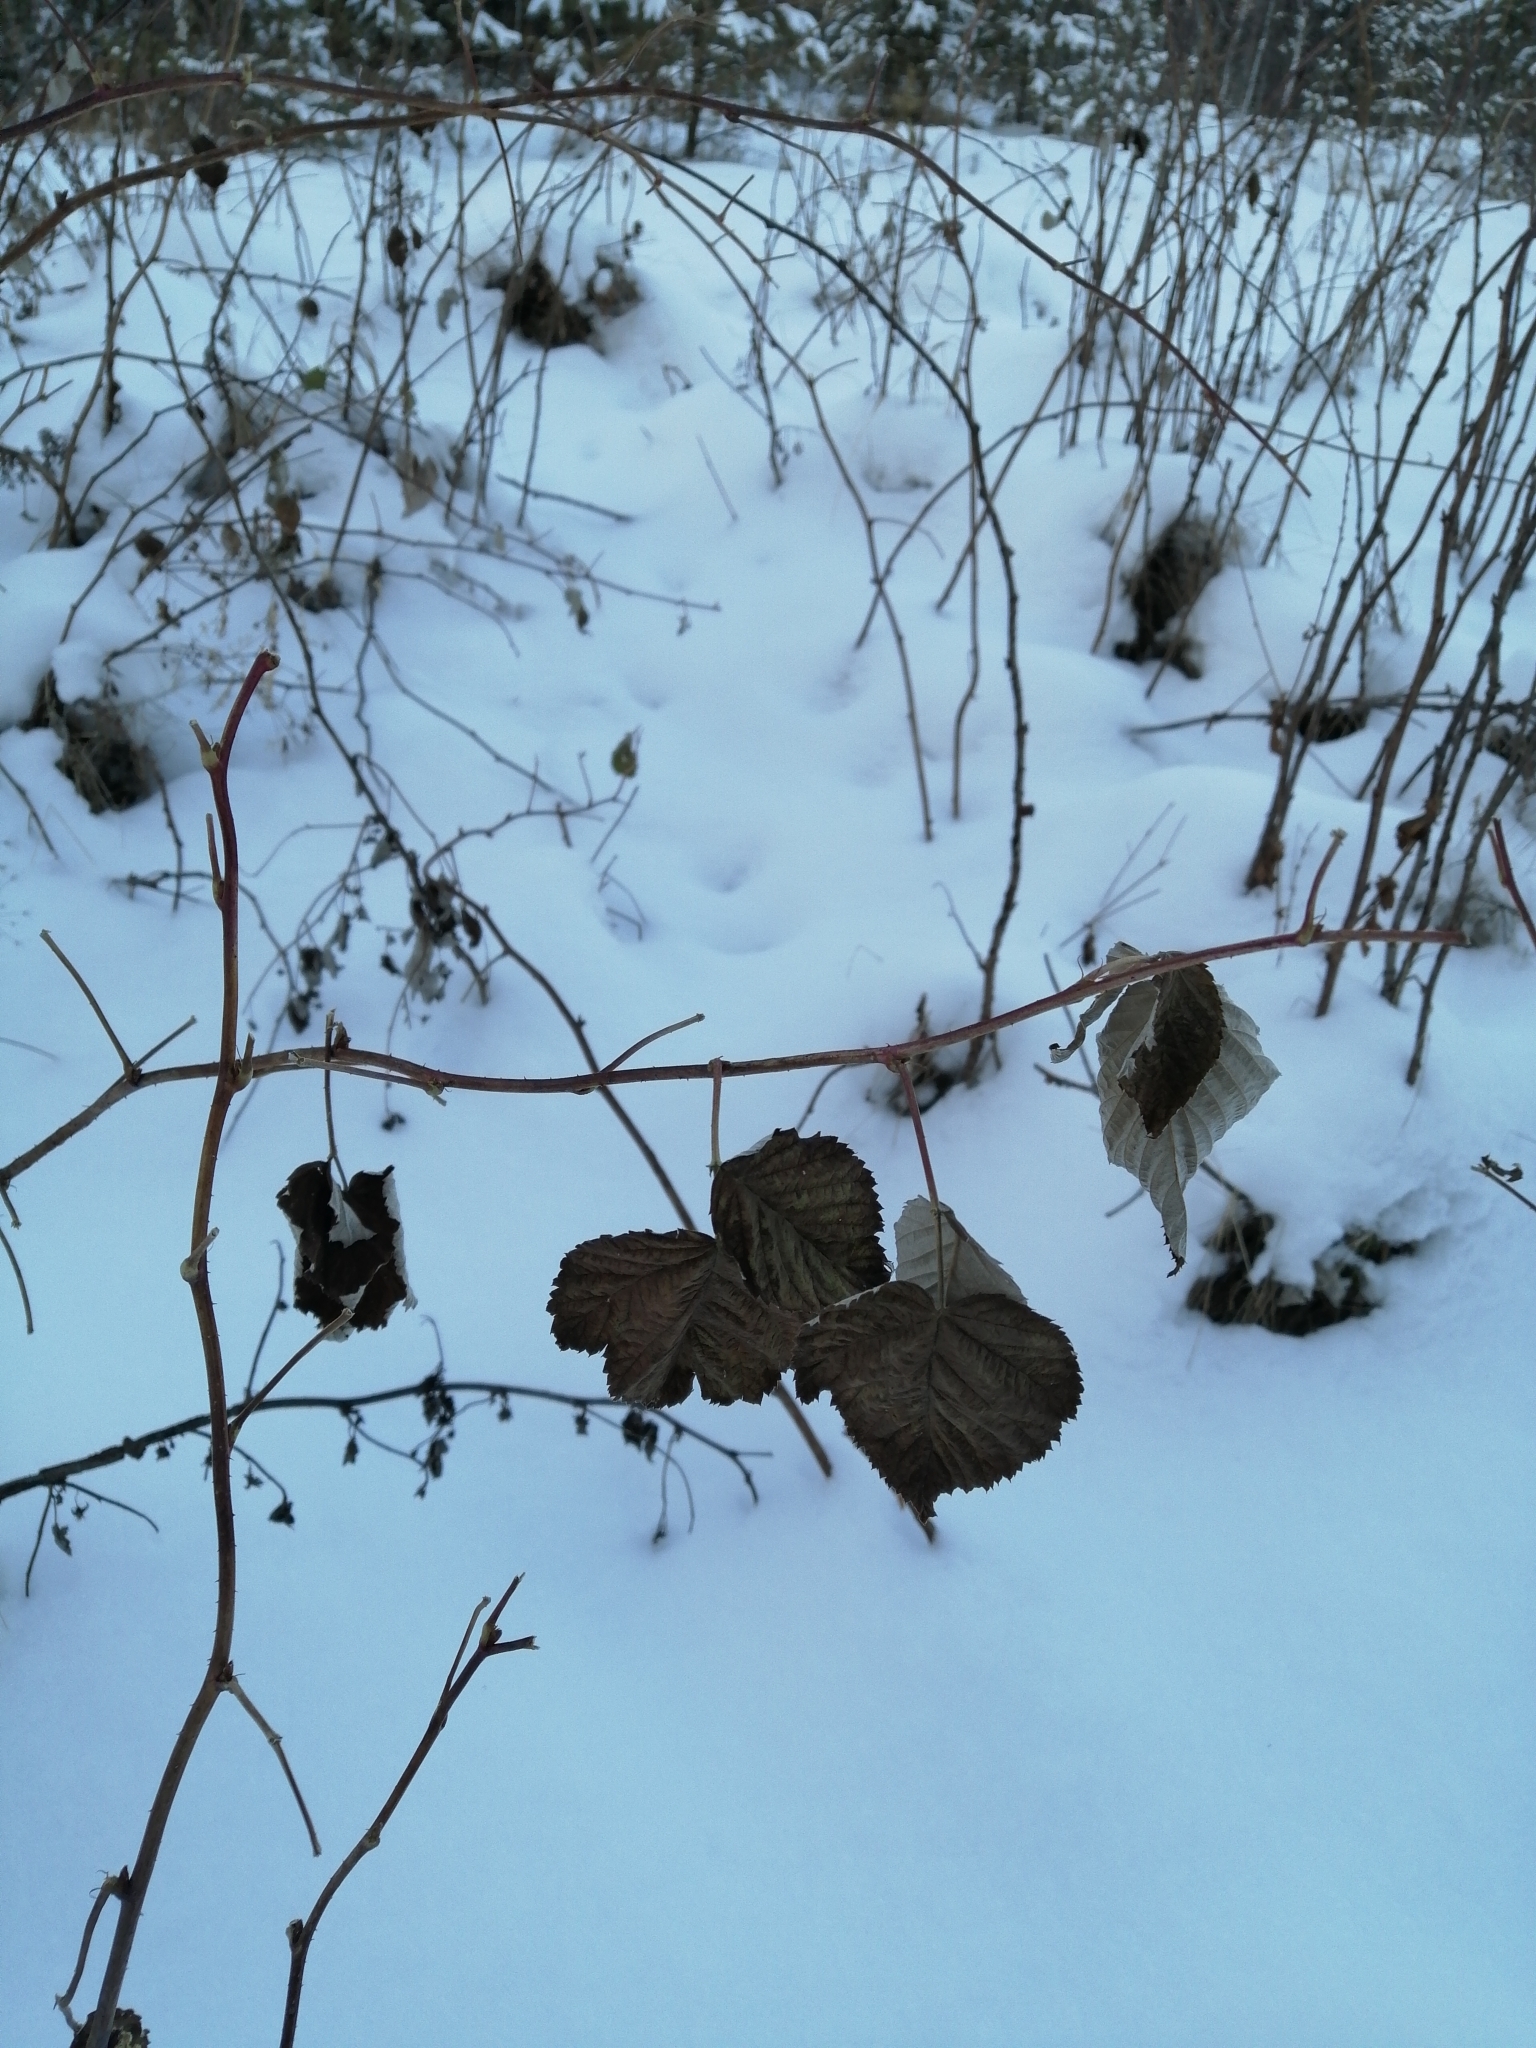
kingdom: Plantae
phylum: Tracheophyta
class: Magnoliopsida
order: Rosales
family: Rosaceae
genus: Rubus
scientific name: Rubus idaeus
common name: Raspberry
